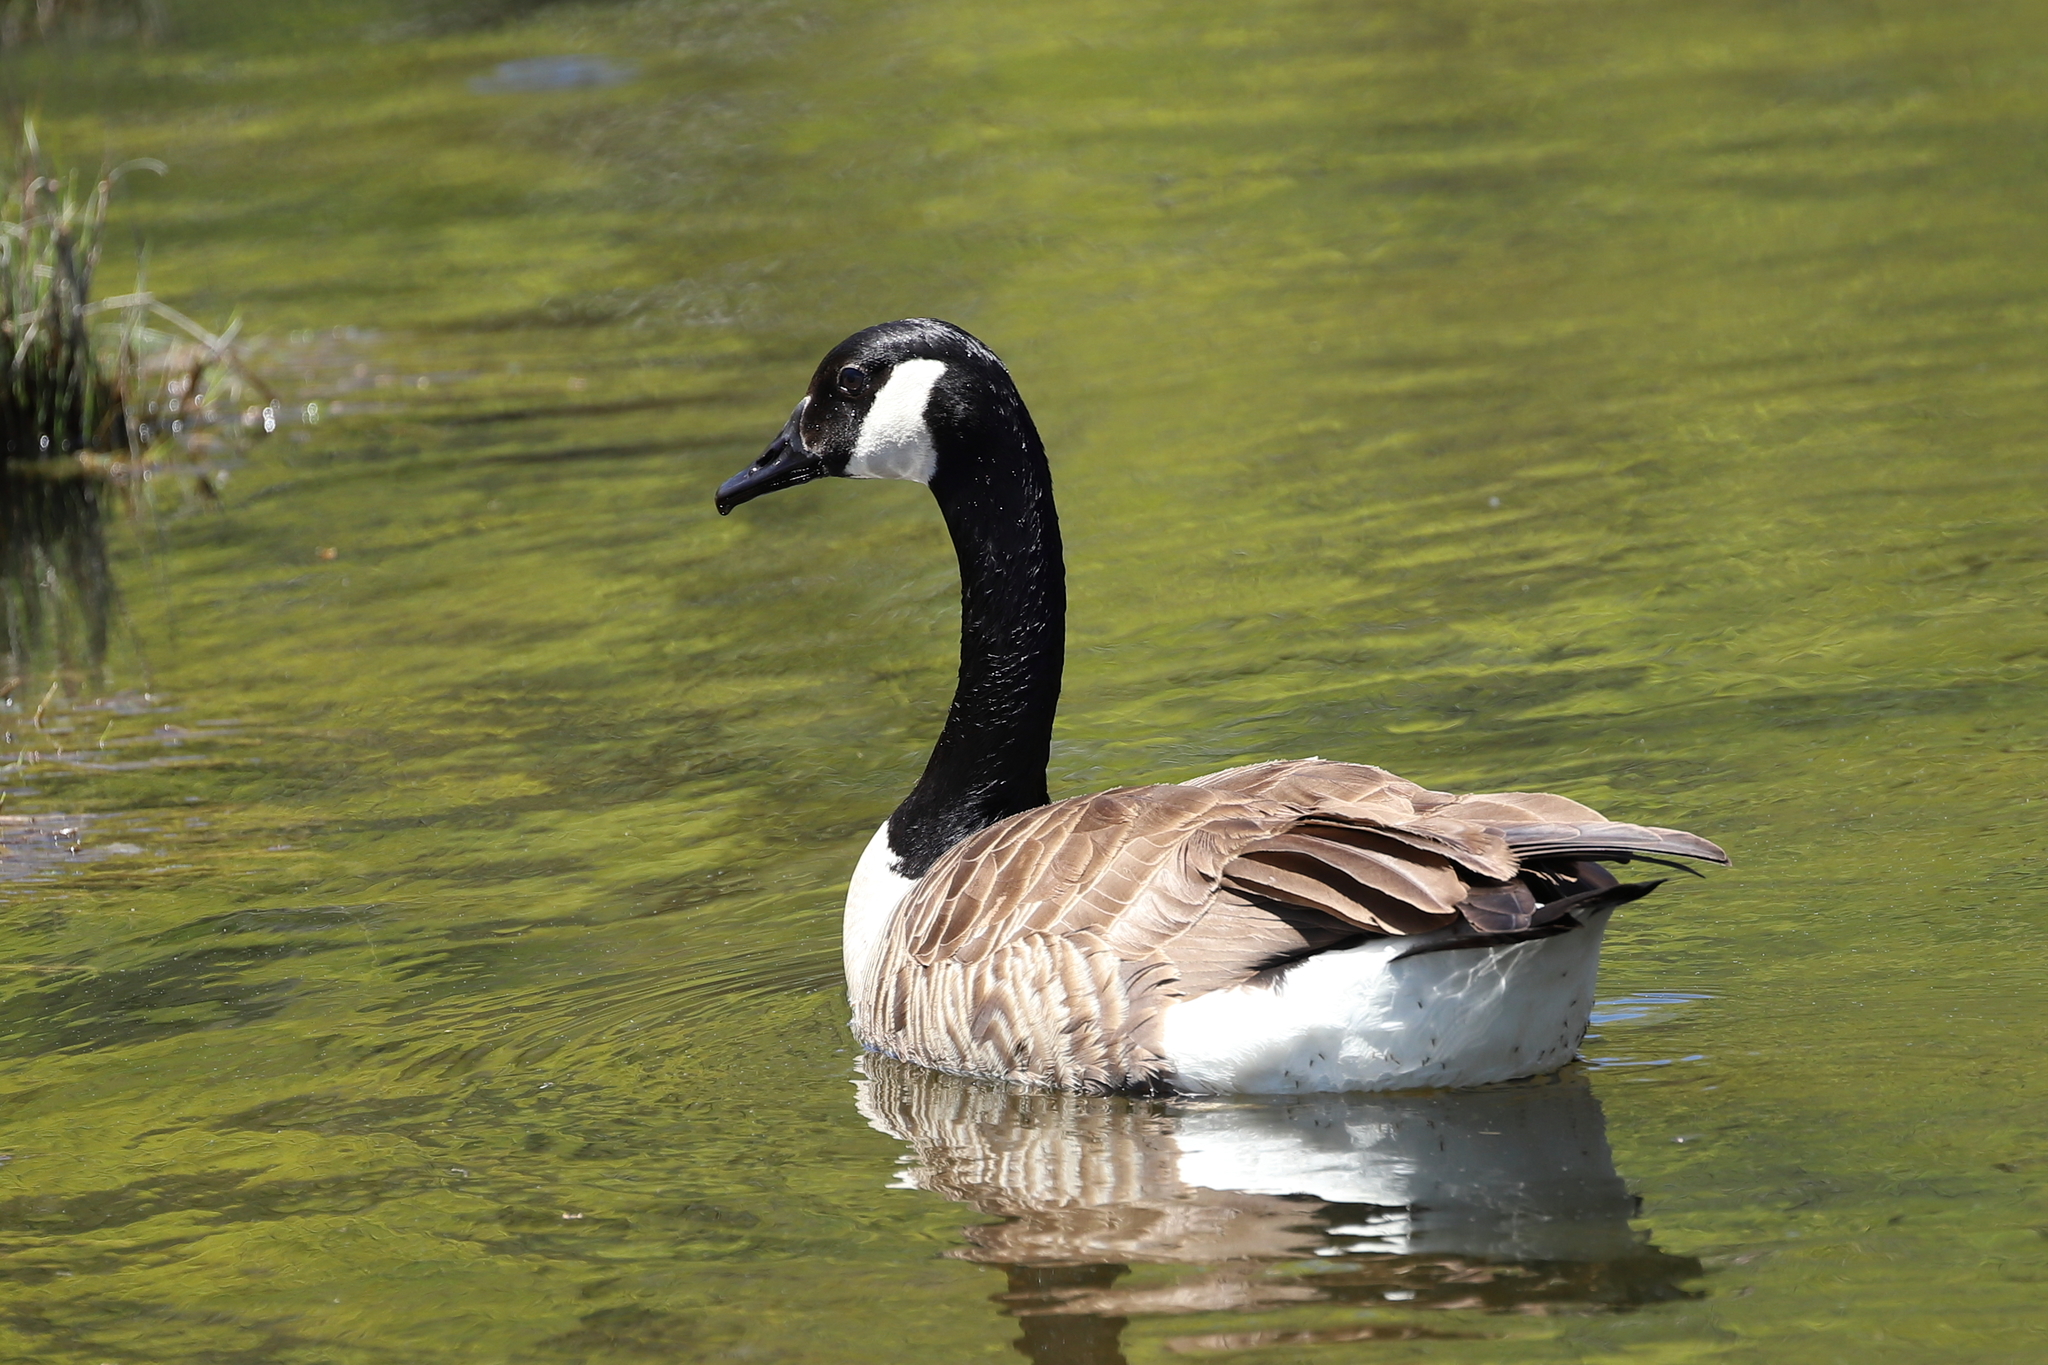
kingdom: Animalia
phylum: Chordata
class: Aves
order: Anseriformes
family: Anatidae
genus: Branta
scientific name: Branta canadensis
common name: Canada goose
